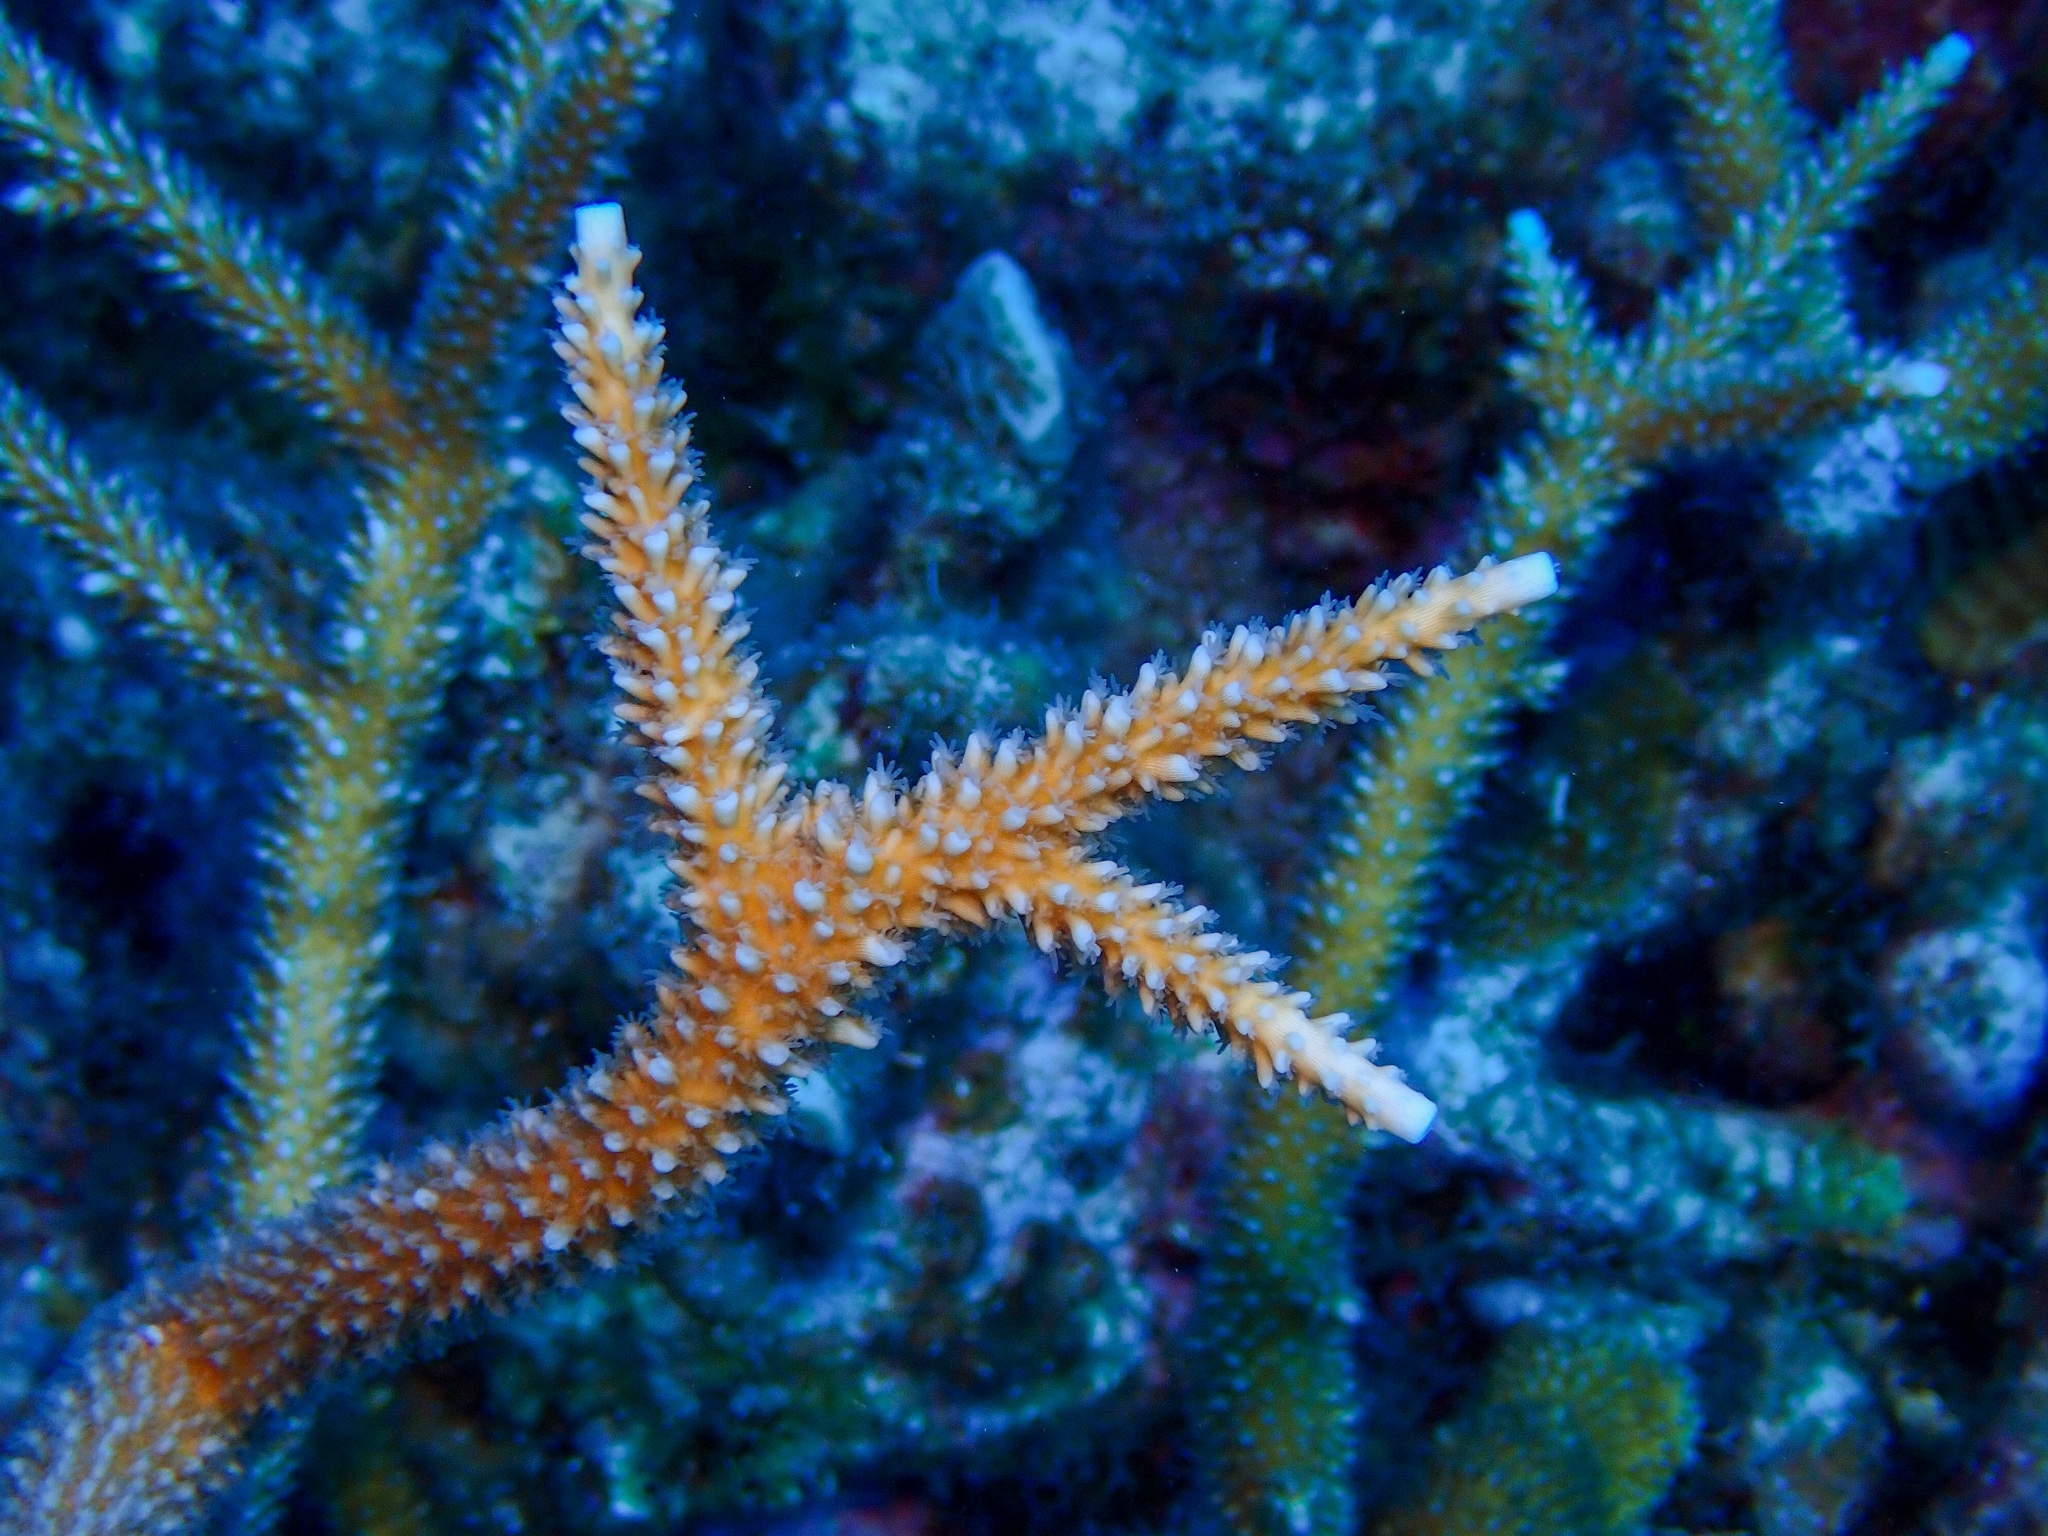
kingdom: Animalia
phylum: Cnidaria
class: Anthozoa
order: Scleractinia
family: Acroporidae
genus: Acropora
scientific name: Acropora cervicornis
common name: Staghorn coral
